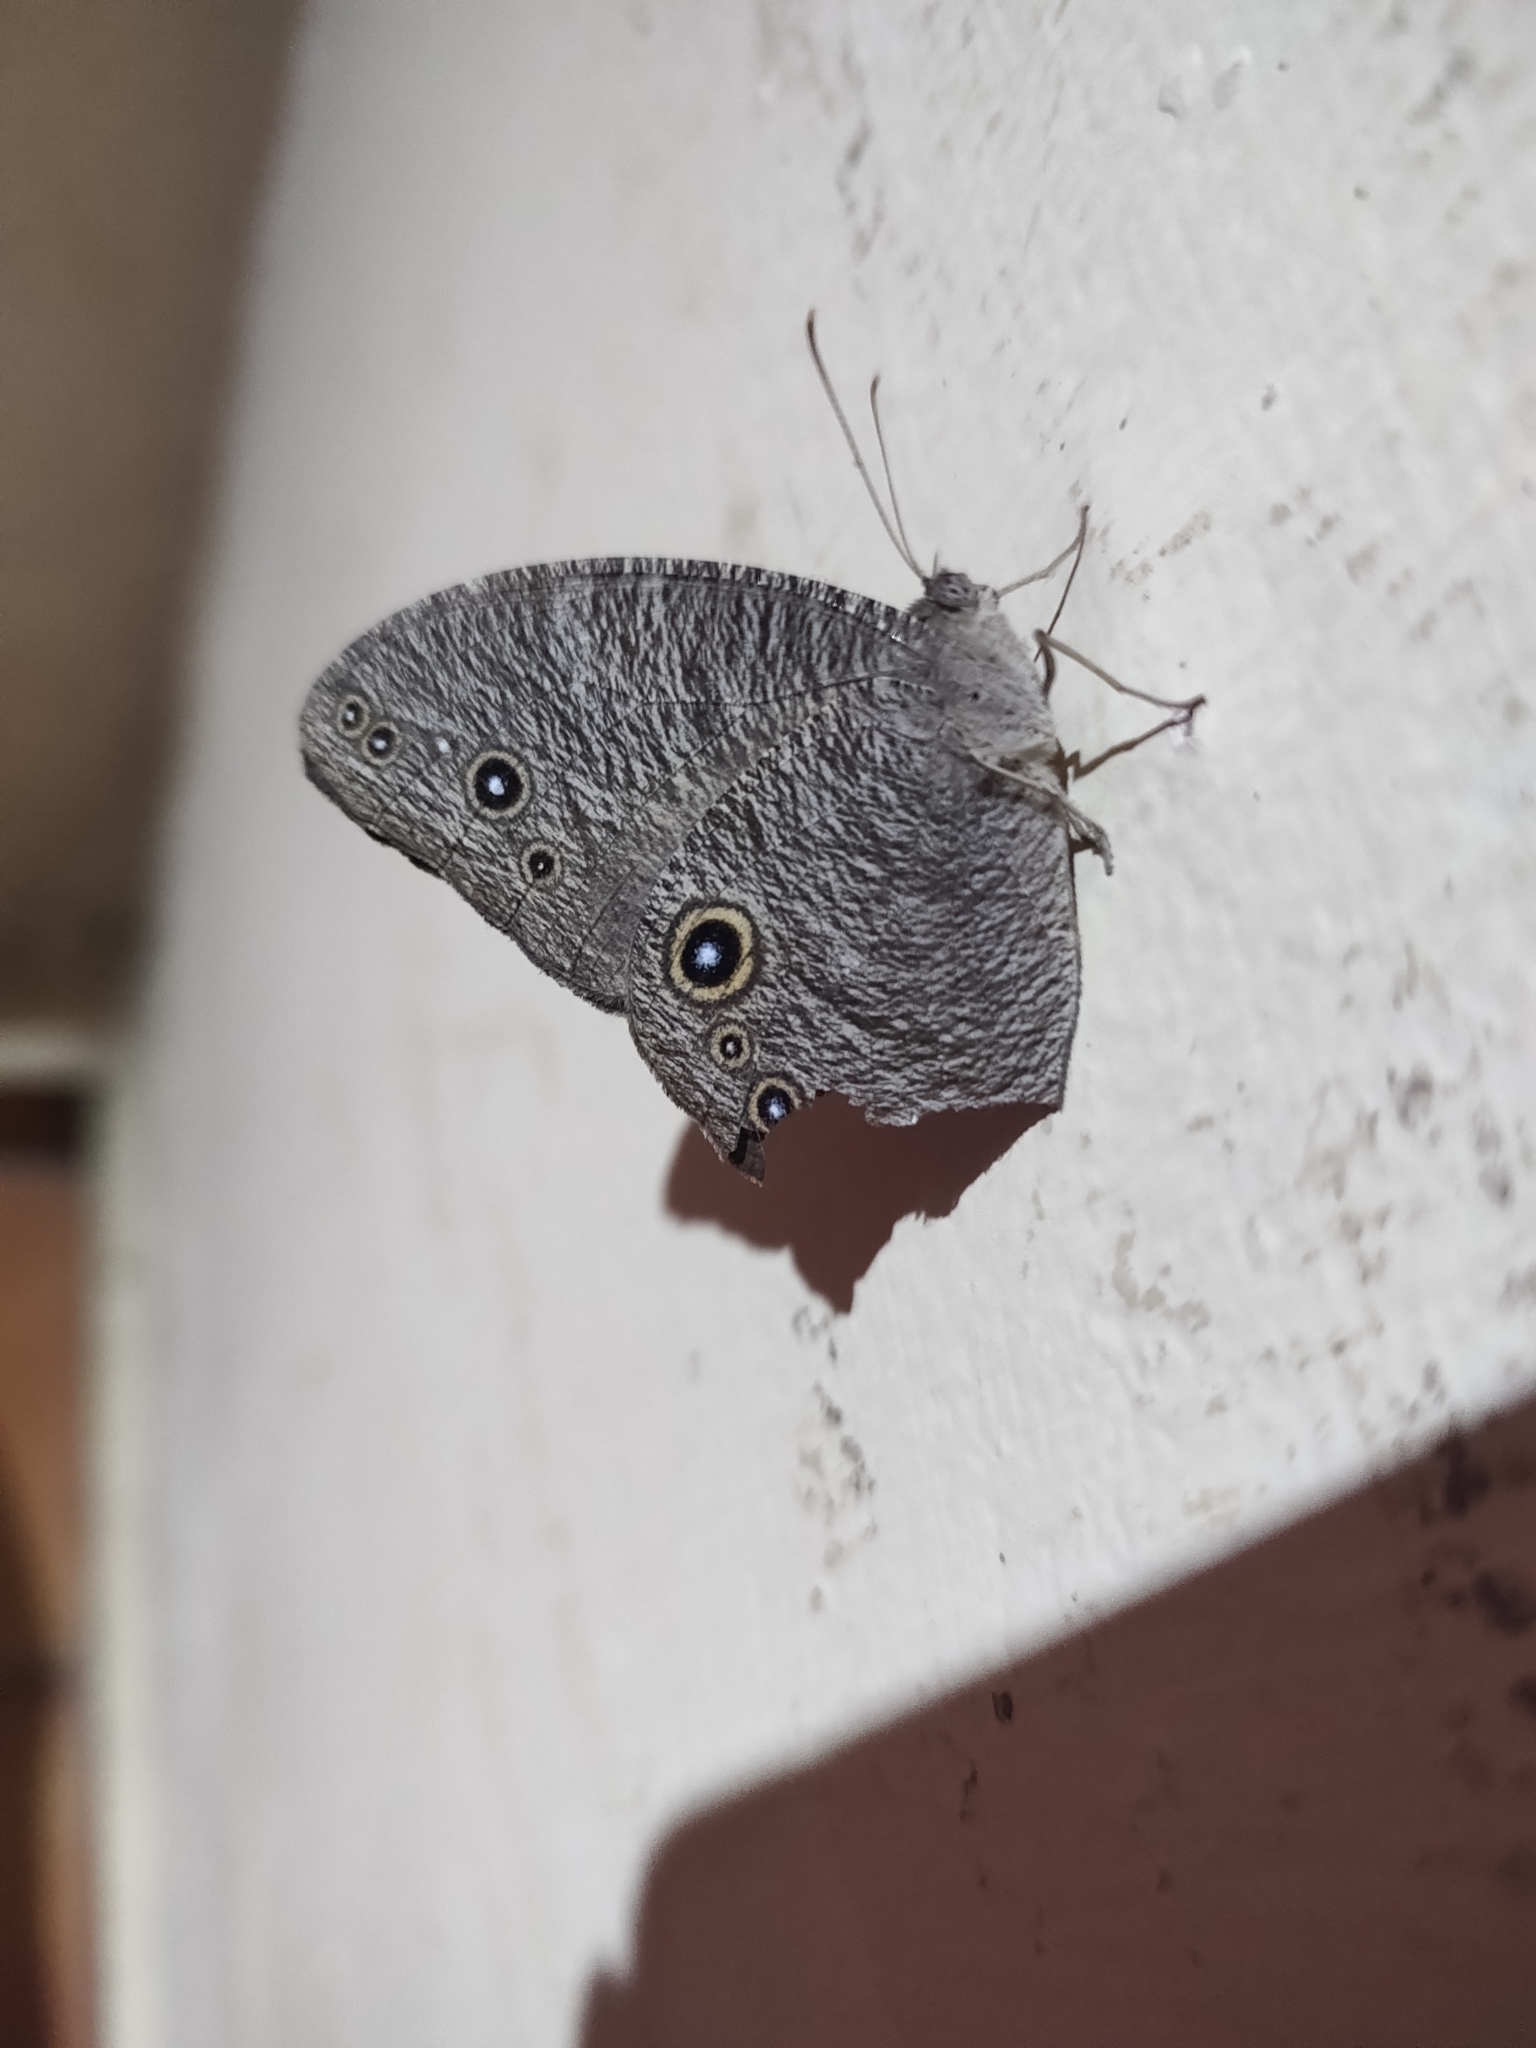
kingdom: Animalia
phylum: Arthropoda
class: Insecta
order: Lepidoptera
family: Nymphalidae
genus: Melanitis
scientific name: Melanitis leda
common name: Twilight brown
